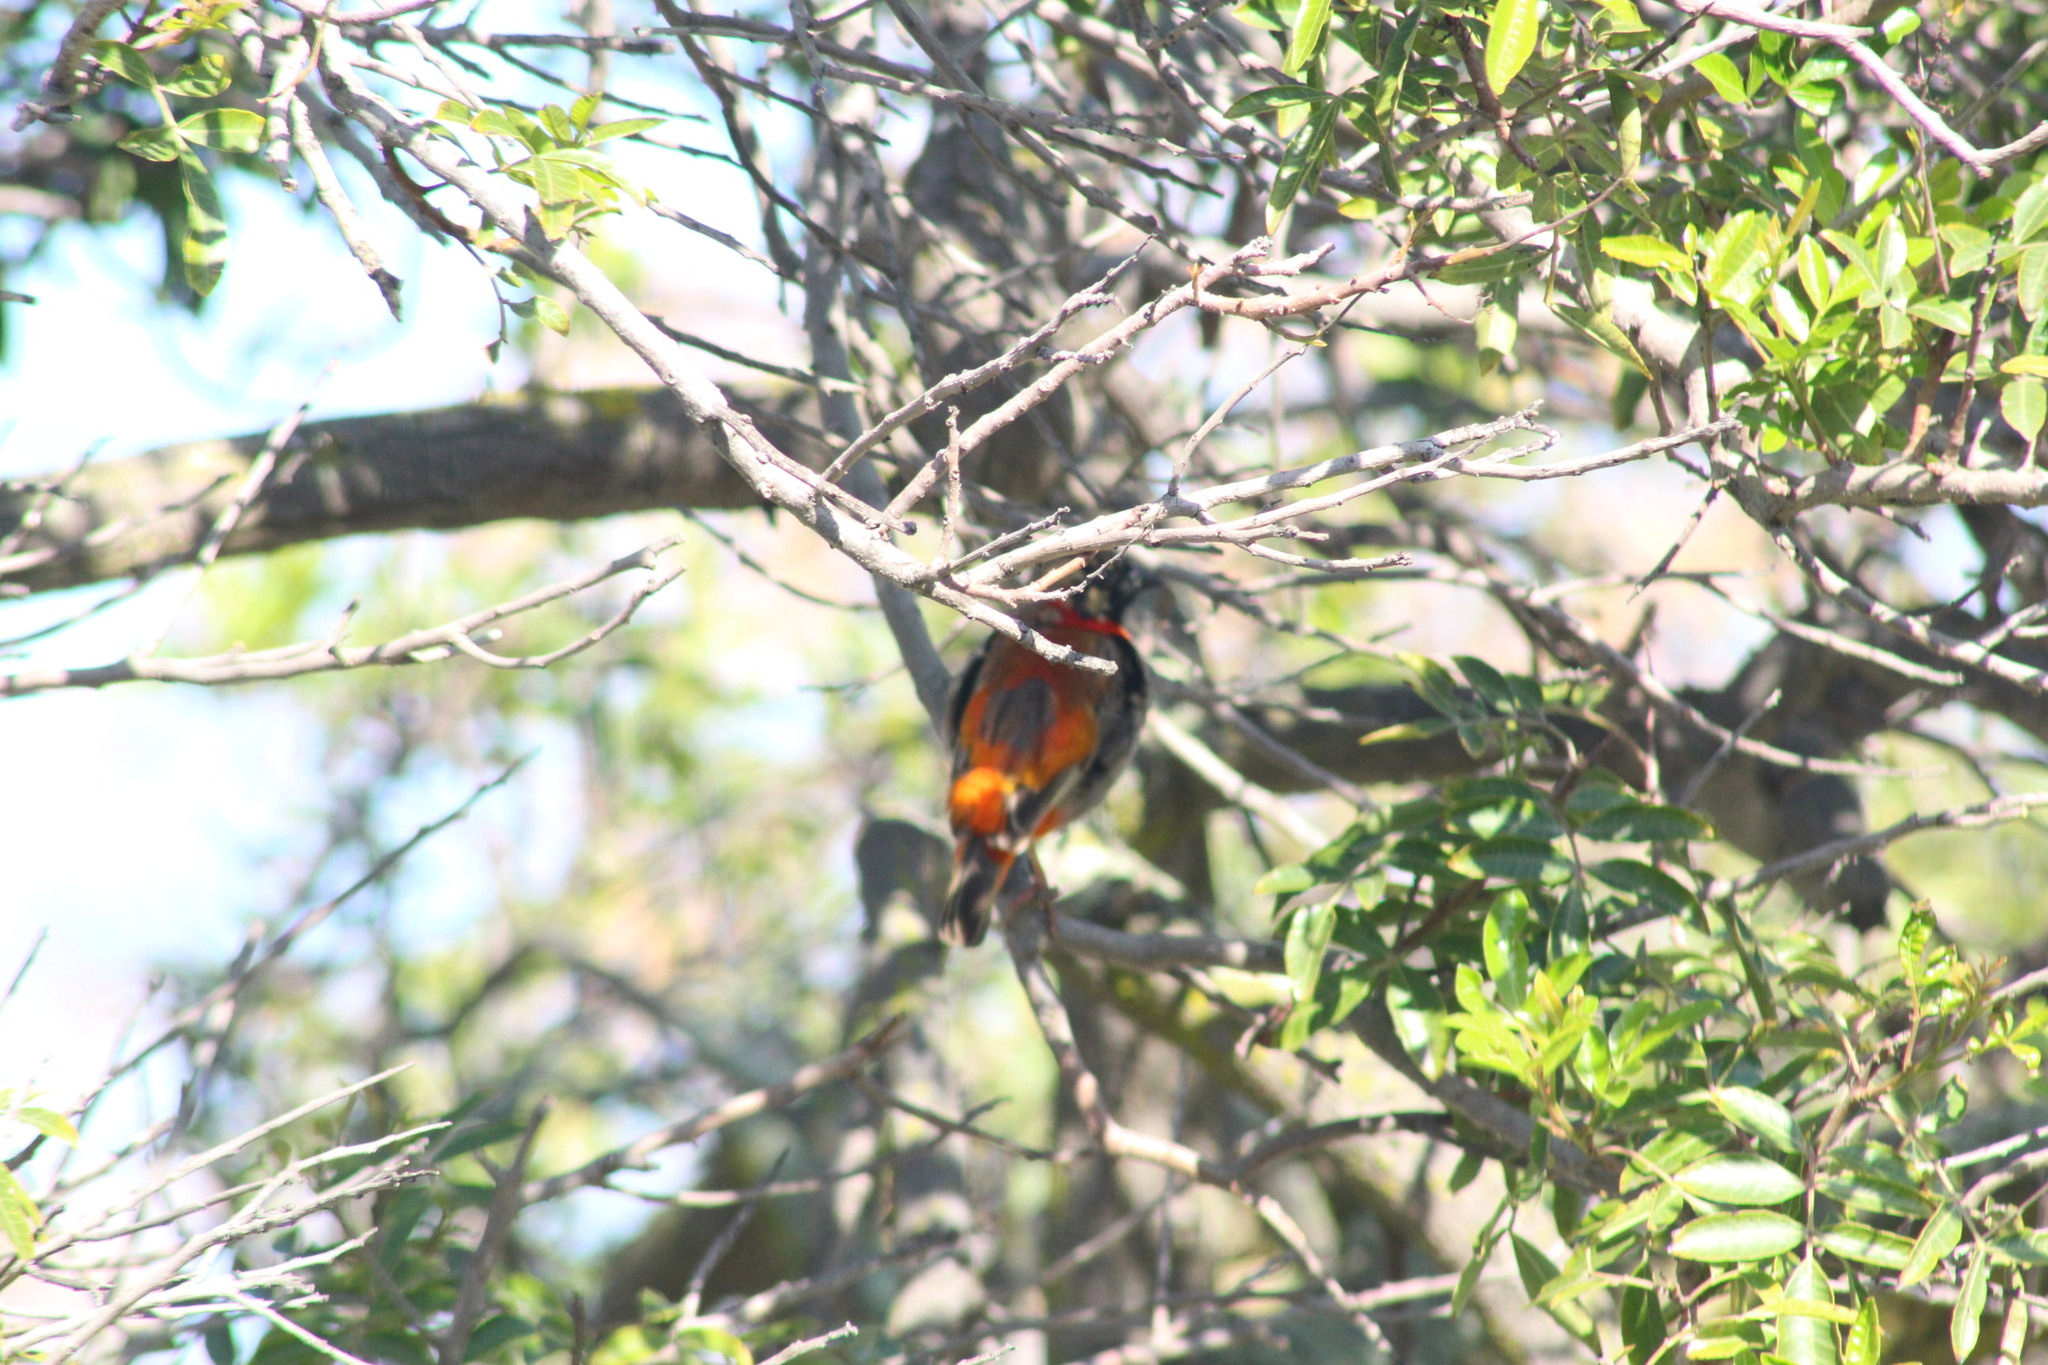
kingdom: Animalia
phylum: Chordata
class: Aves
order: Passeriformes
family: Ploceidae
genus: Euplectes
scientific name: Euplectes orix
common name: Southern red bishop
